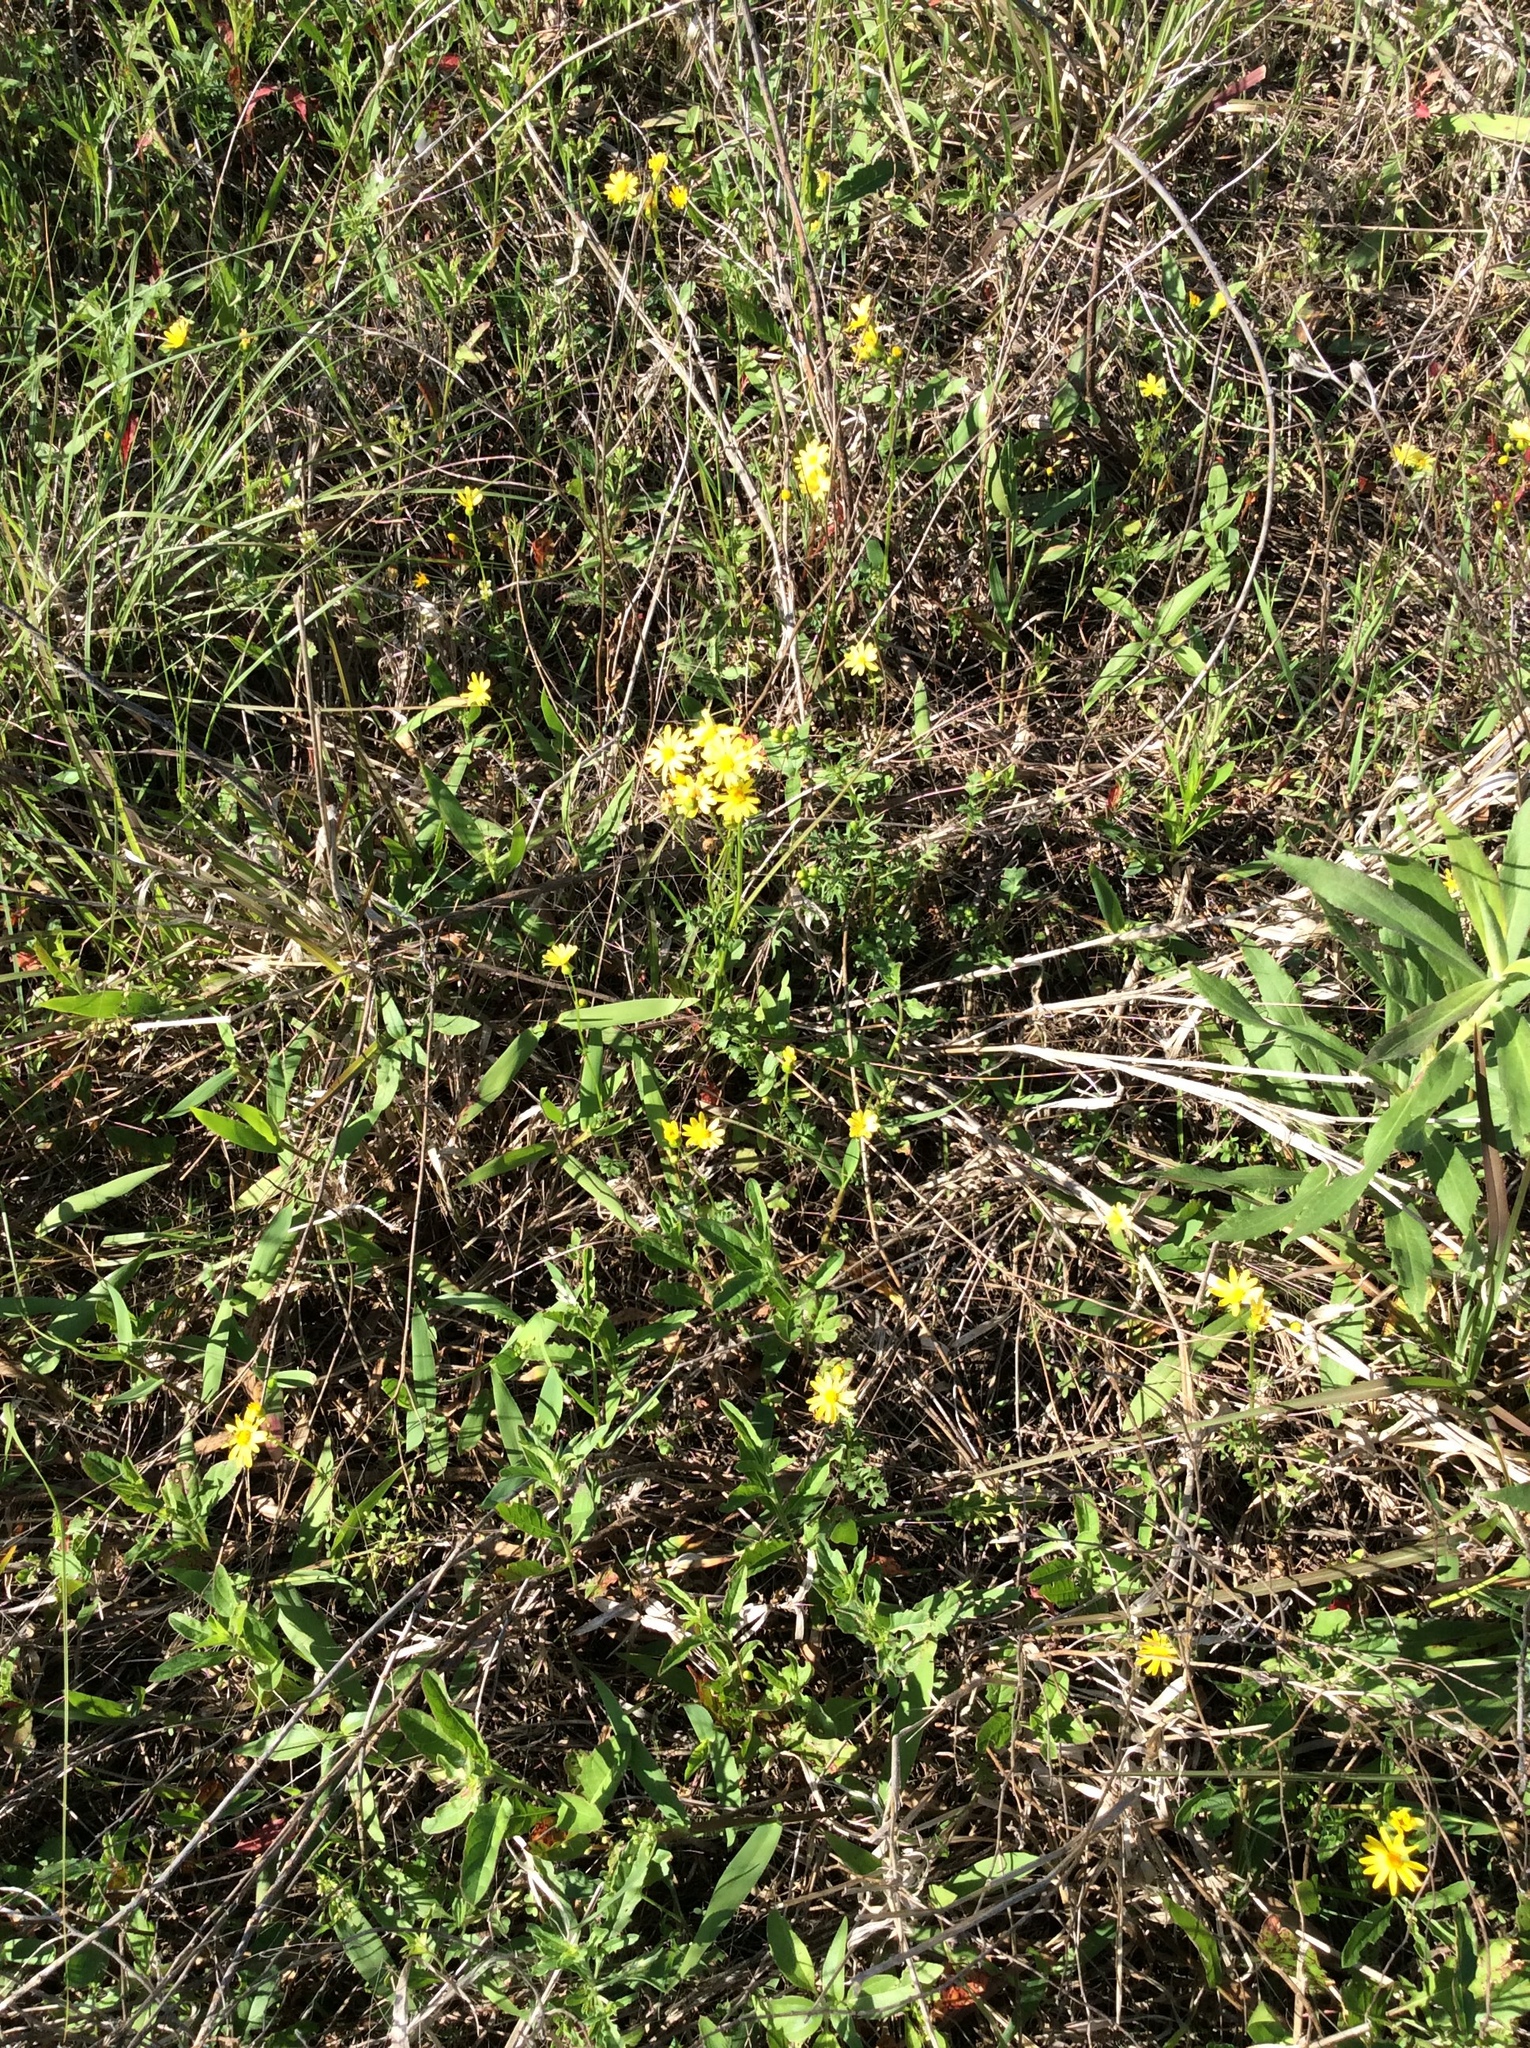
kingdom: Plantae
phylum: Tracheophyta
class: Magnoliopsida
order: Asterales
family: Asteraceae
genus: Packera
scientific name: Packera obovata
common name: Round-leaf ragwort
